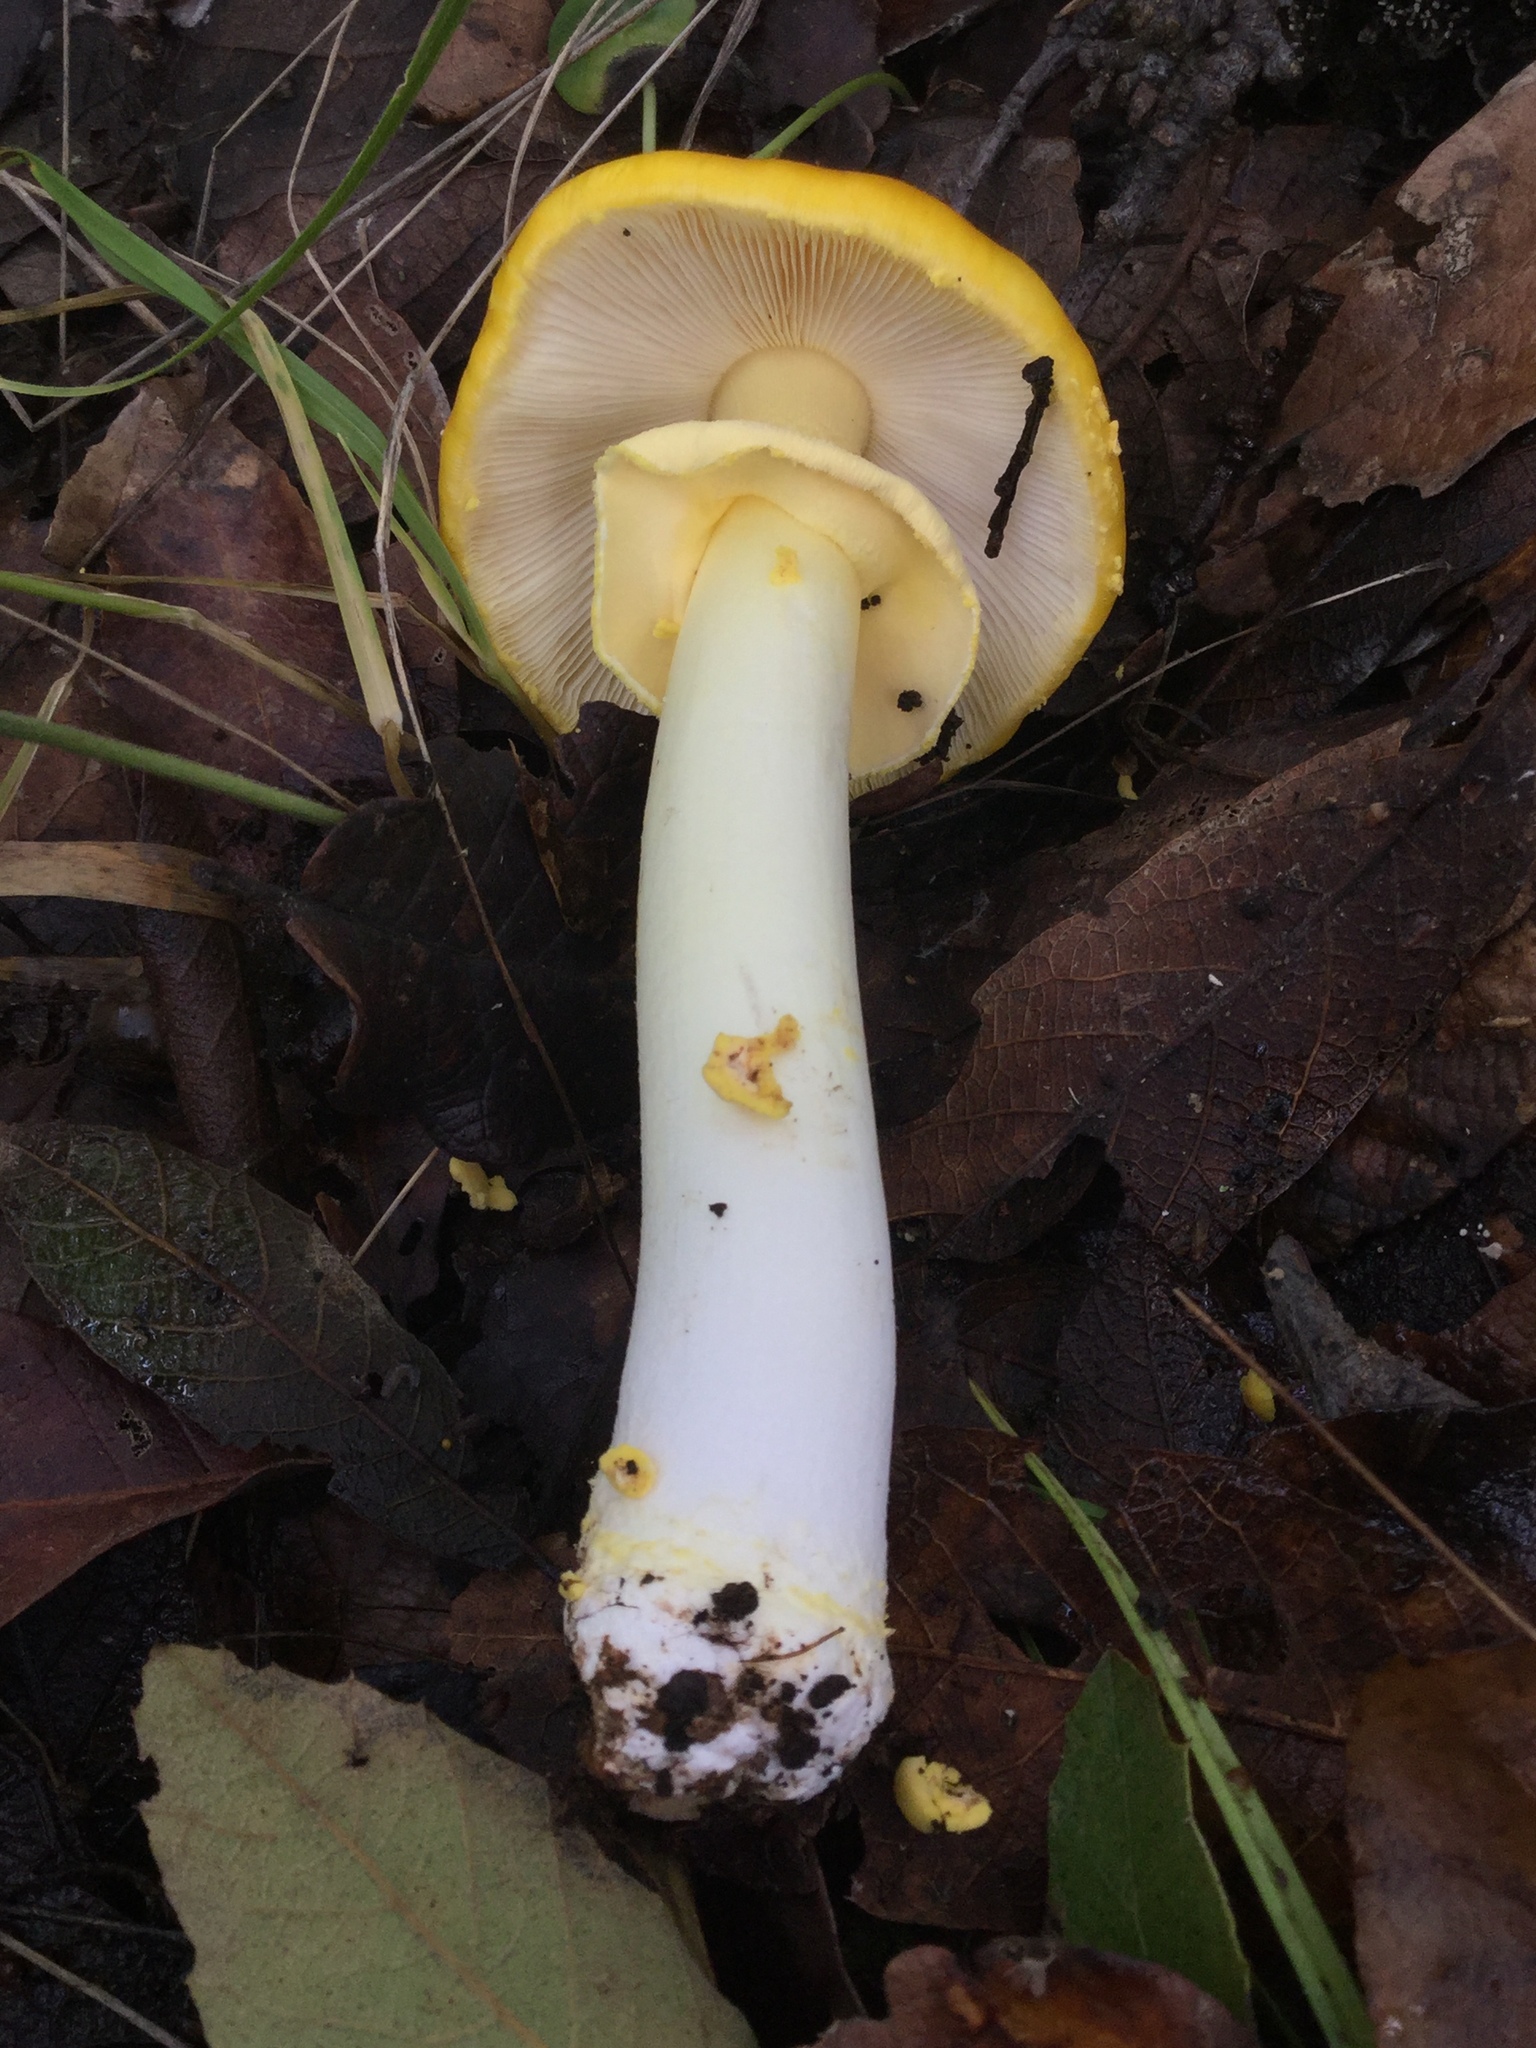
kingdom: Fungi
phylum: Basidiomycota
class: Agaricomycetes
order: Agaricales
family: Amanitaceae
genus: Amanita
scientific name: Amanita flavoconia
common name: Yellow patches
